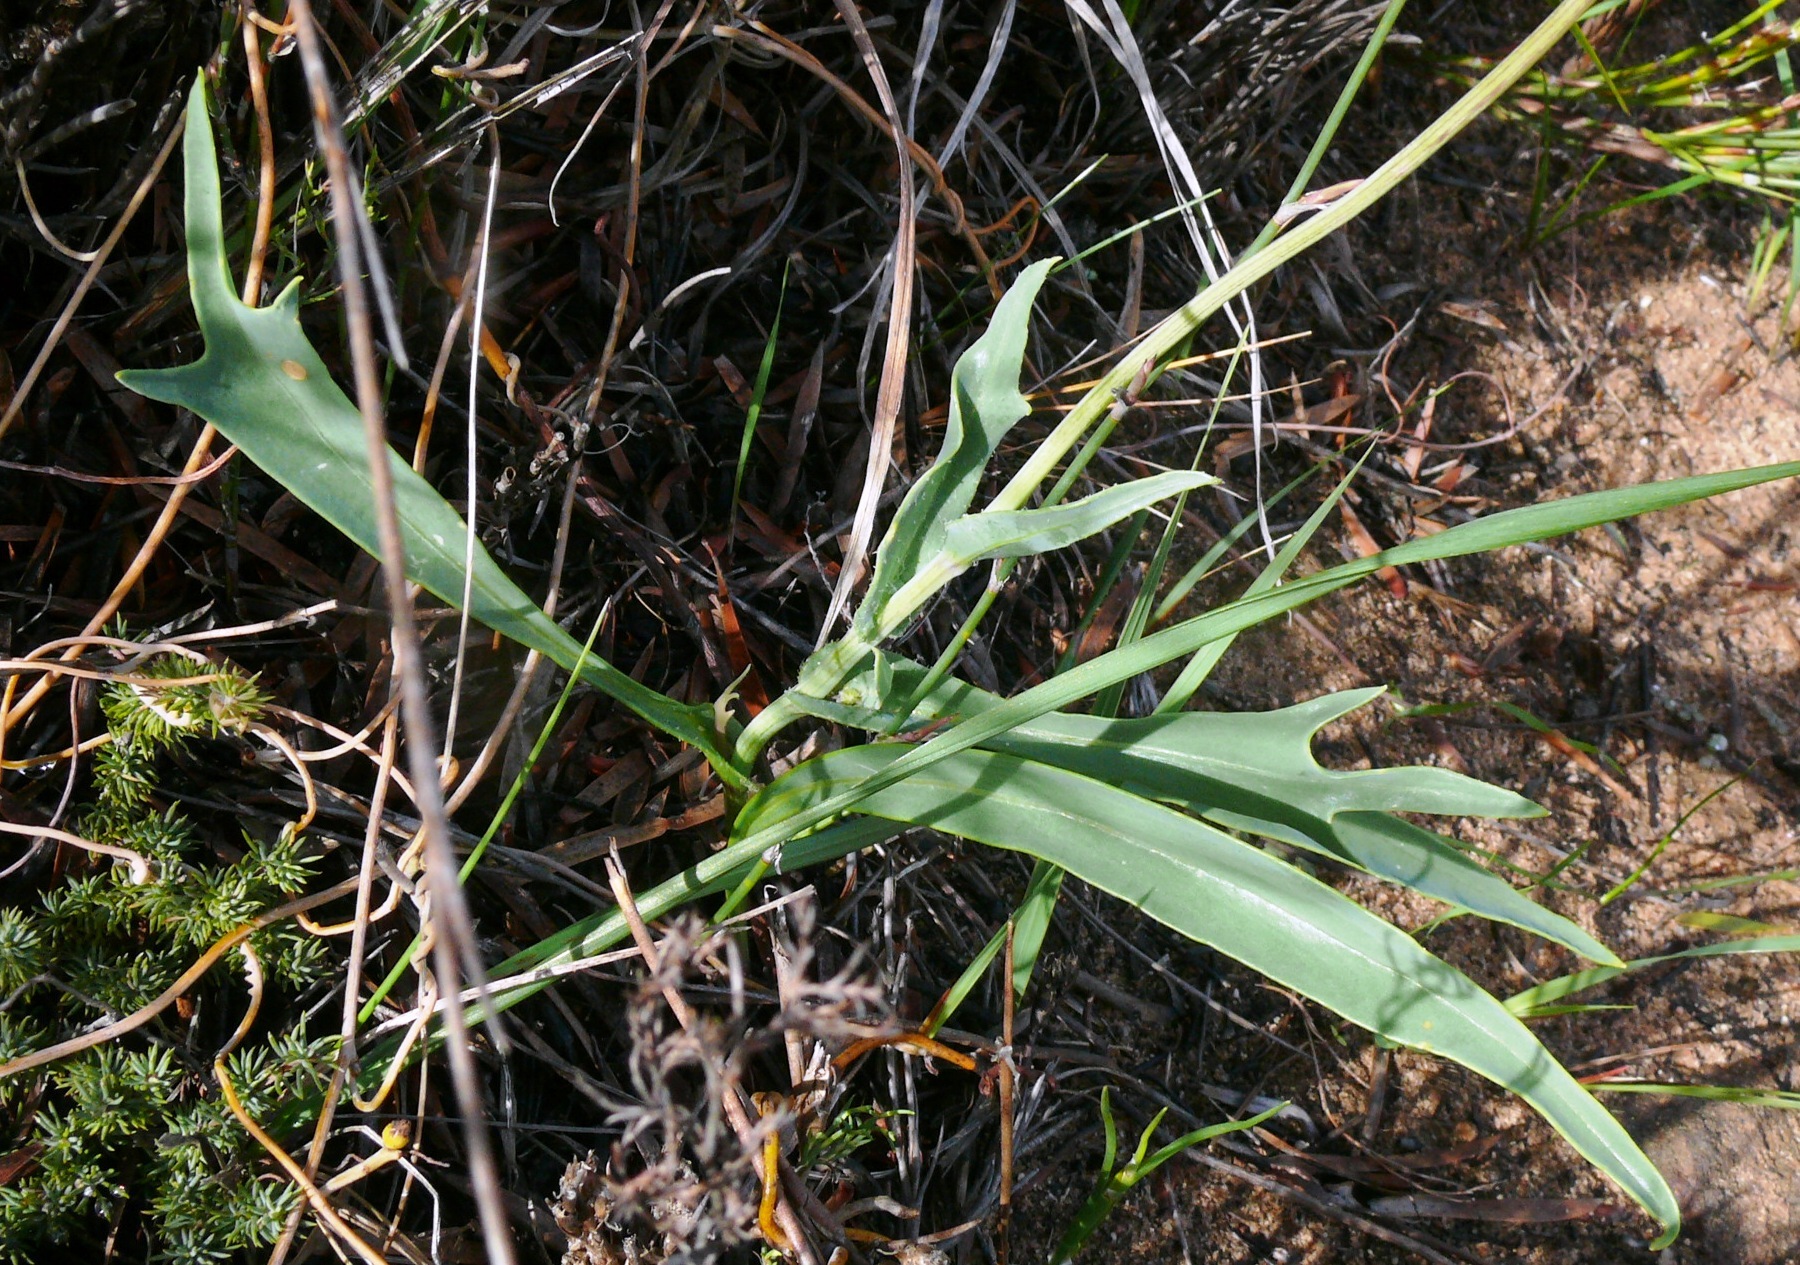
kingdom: Plantae
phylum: Tracheophyta
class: Magnoliopsida
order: Asterales
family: Asteraceae
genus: Othonna
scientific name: Othonna digitata
